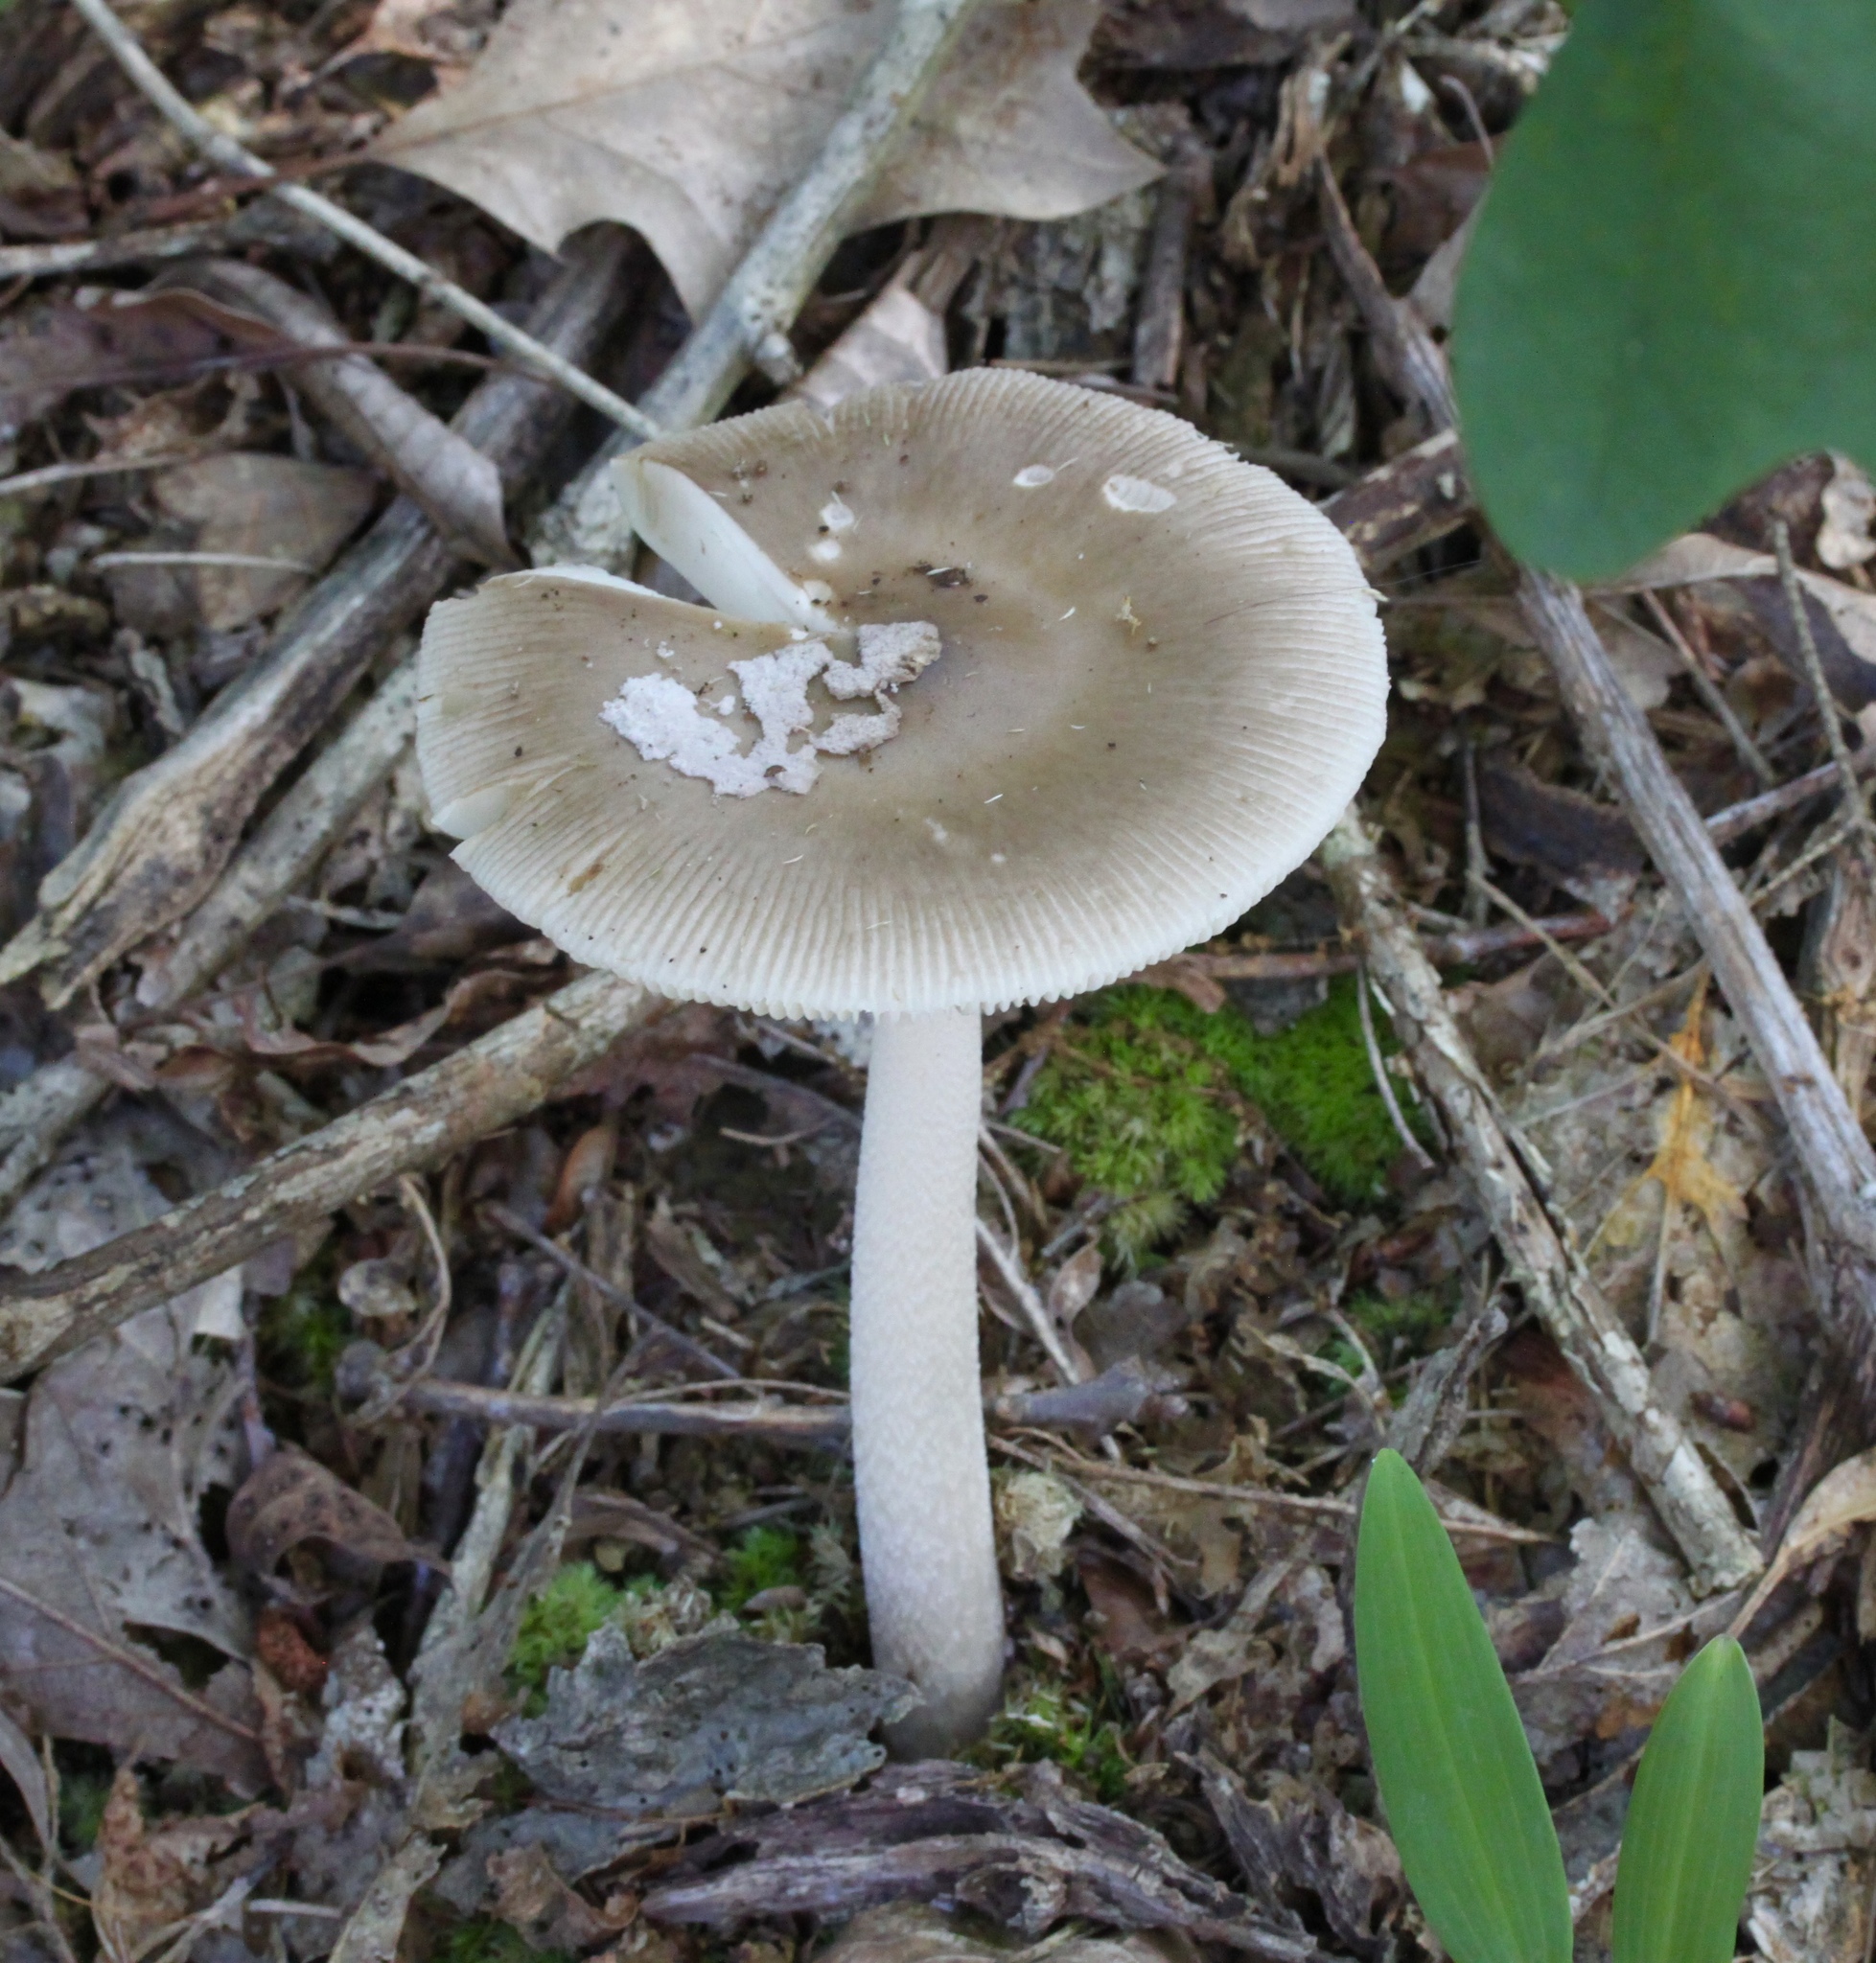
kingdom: Fungi
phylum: Basidiomycota
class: Agaricomycetes
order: Agaricales
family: Amanitaceae
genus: Amanita
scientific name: Amanita vaginata
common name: Grisette
